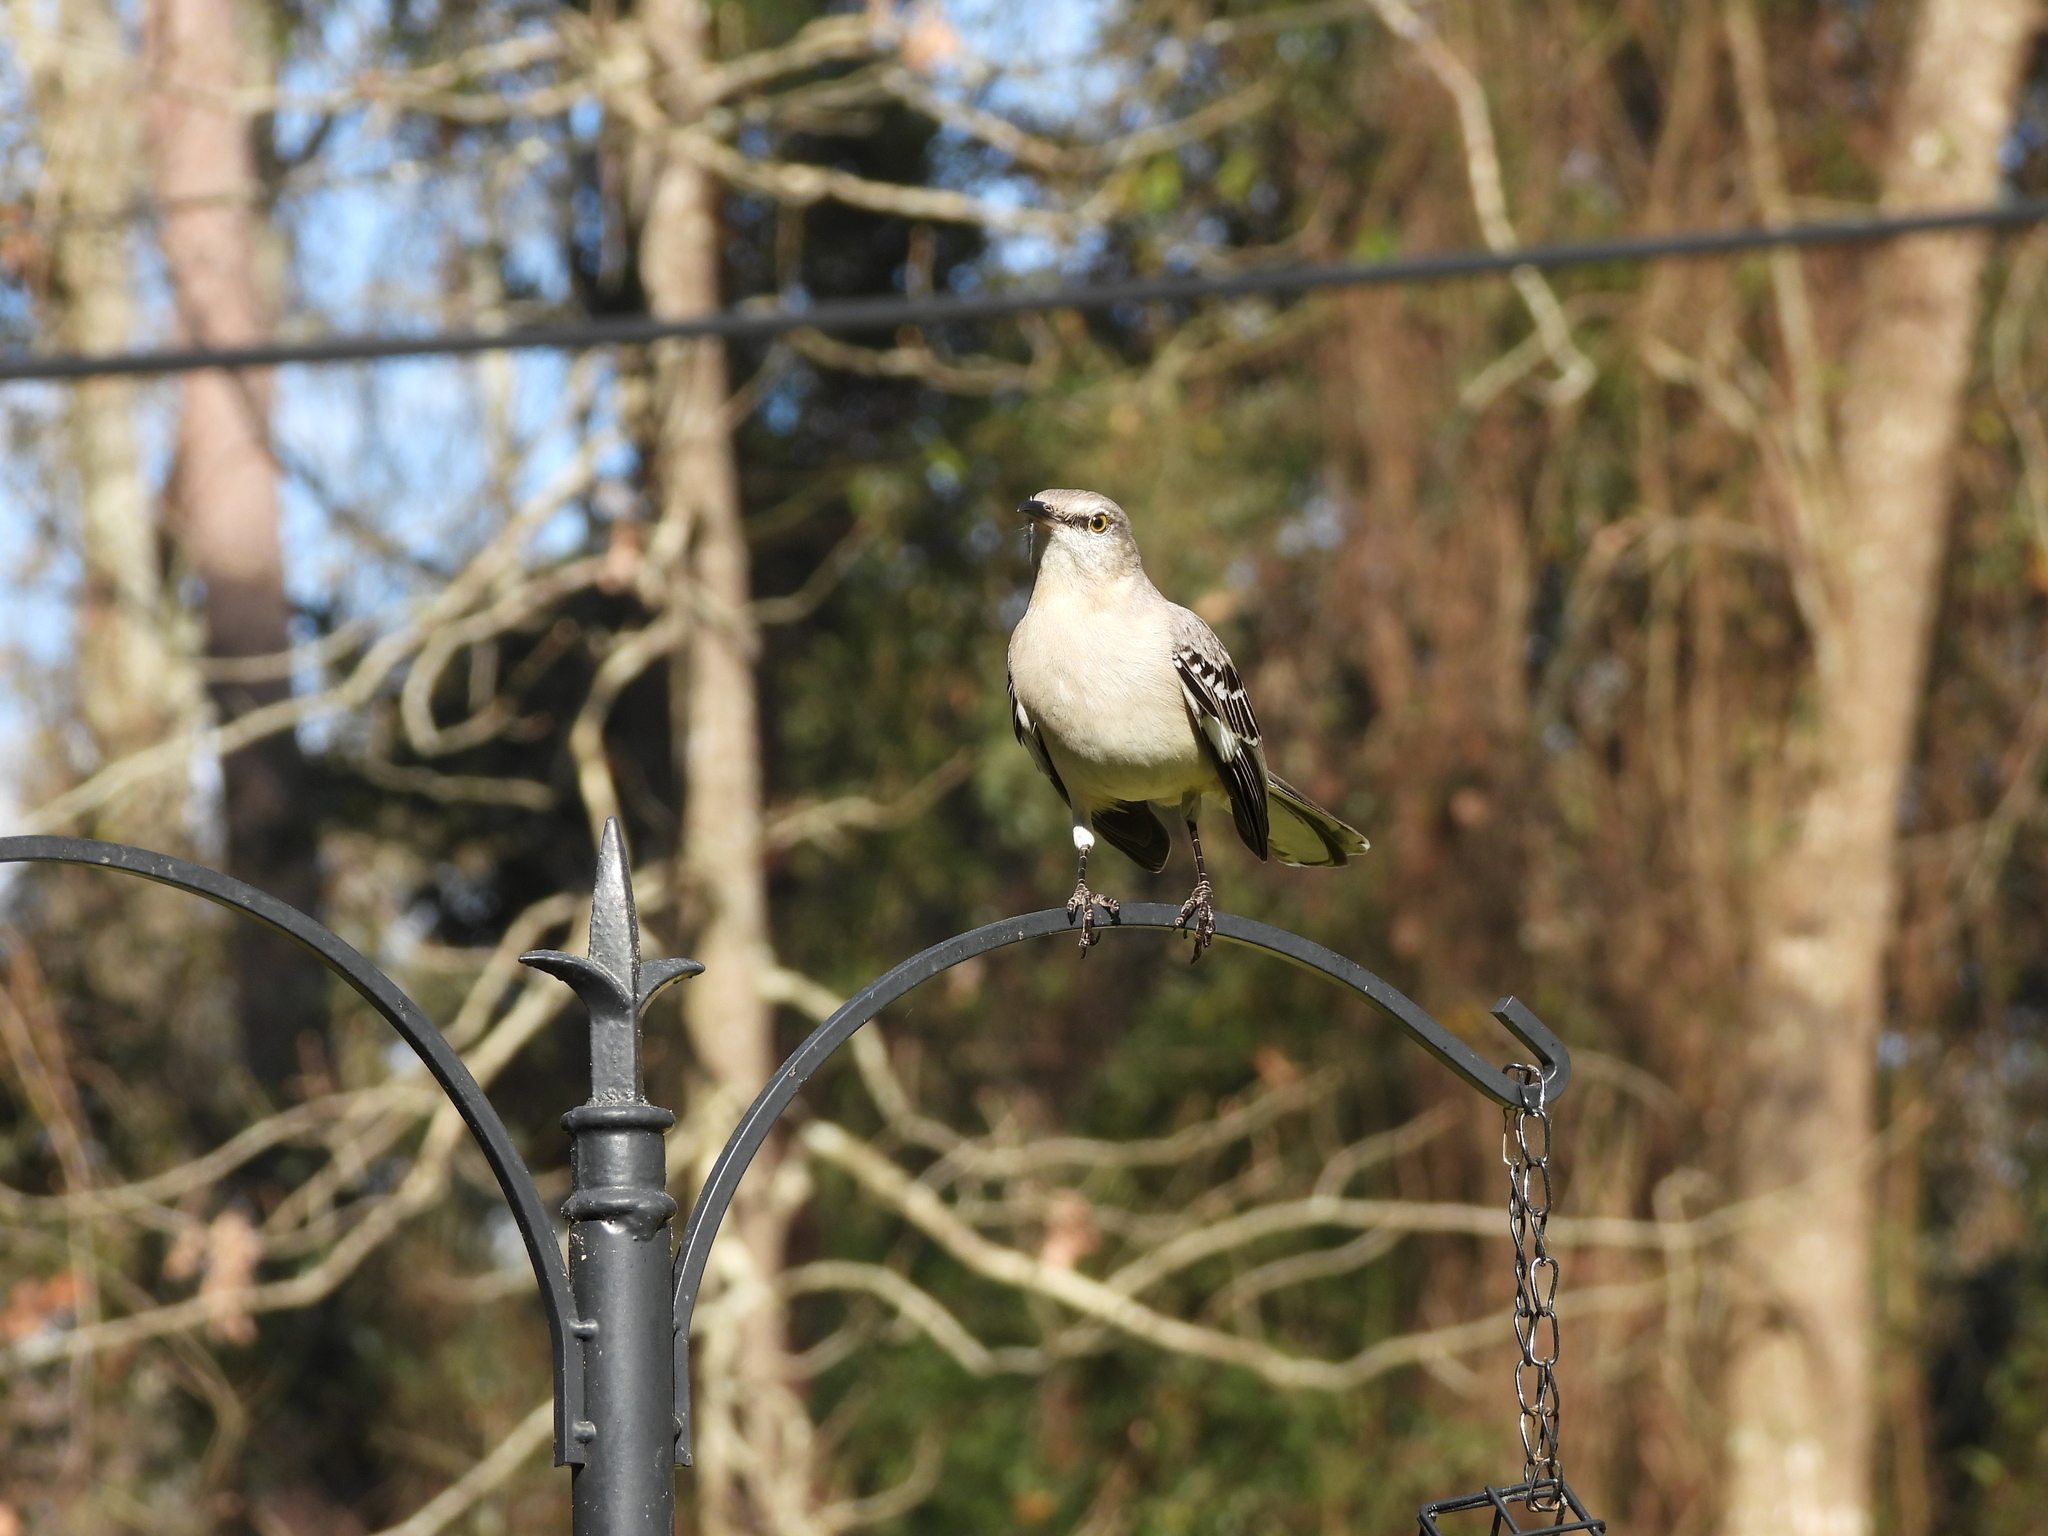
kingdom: Animalia
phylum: Chordata
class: Aves
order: Passeriformes
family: Mimidae
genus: Mimus
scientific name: Mimus polyglottos
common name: Northern mockingbird
